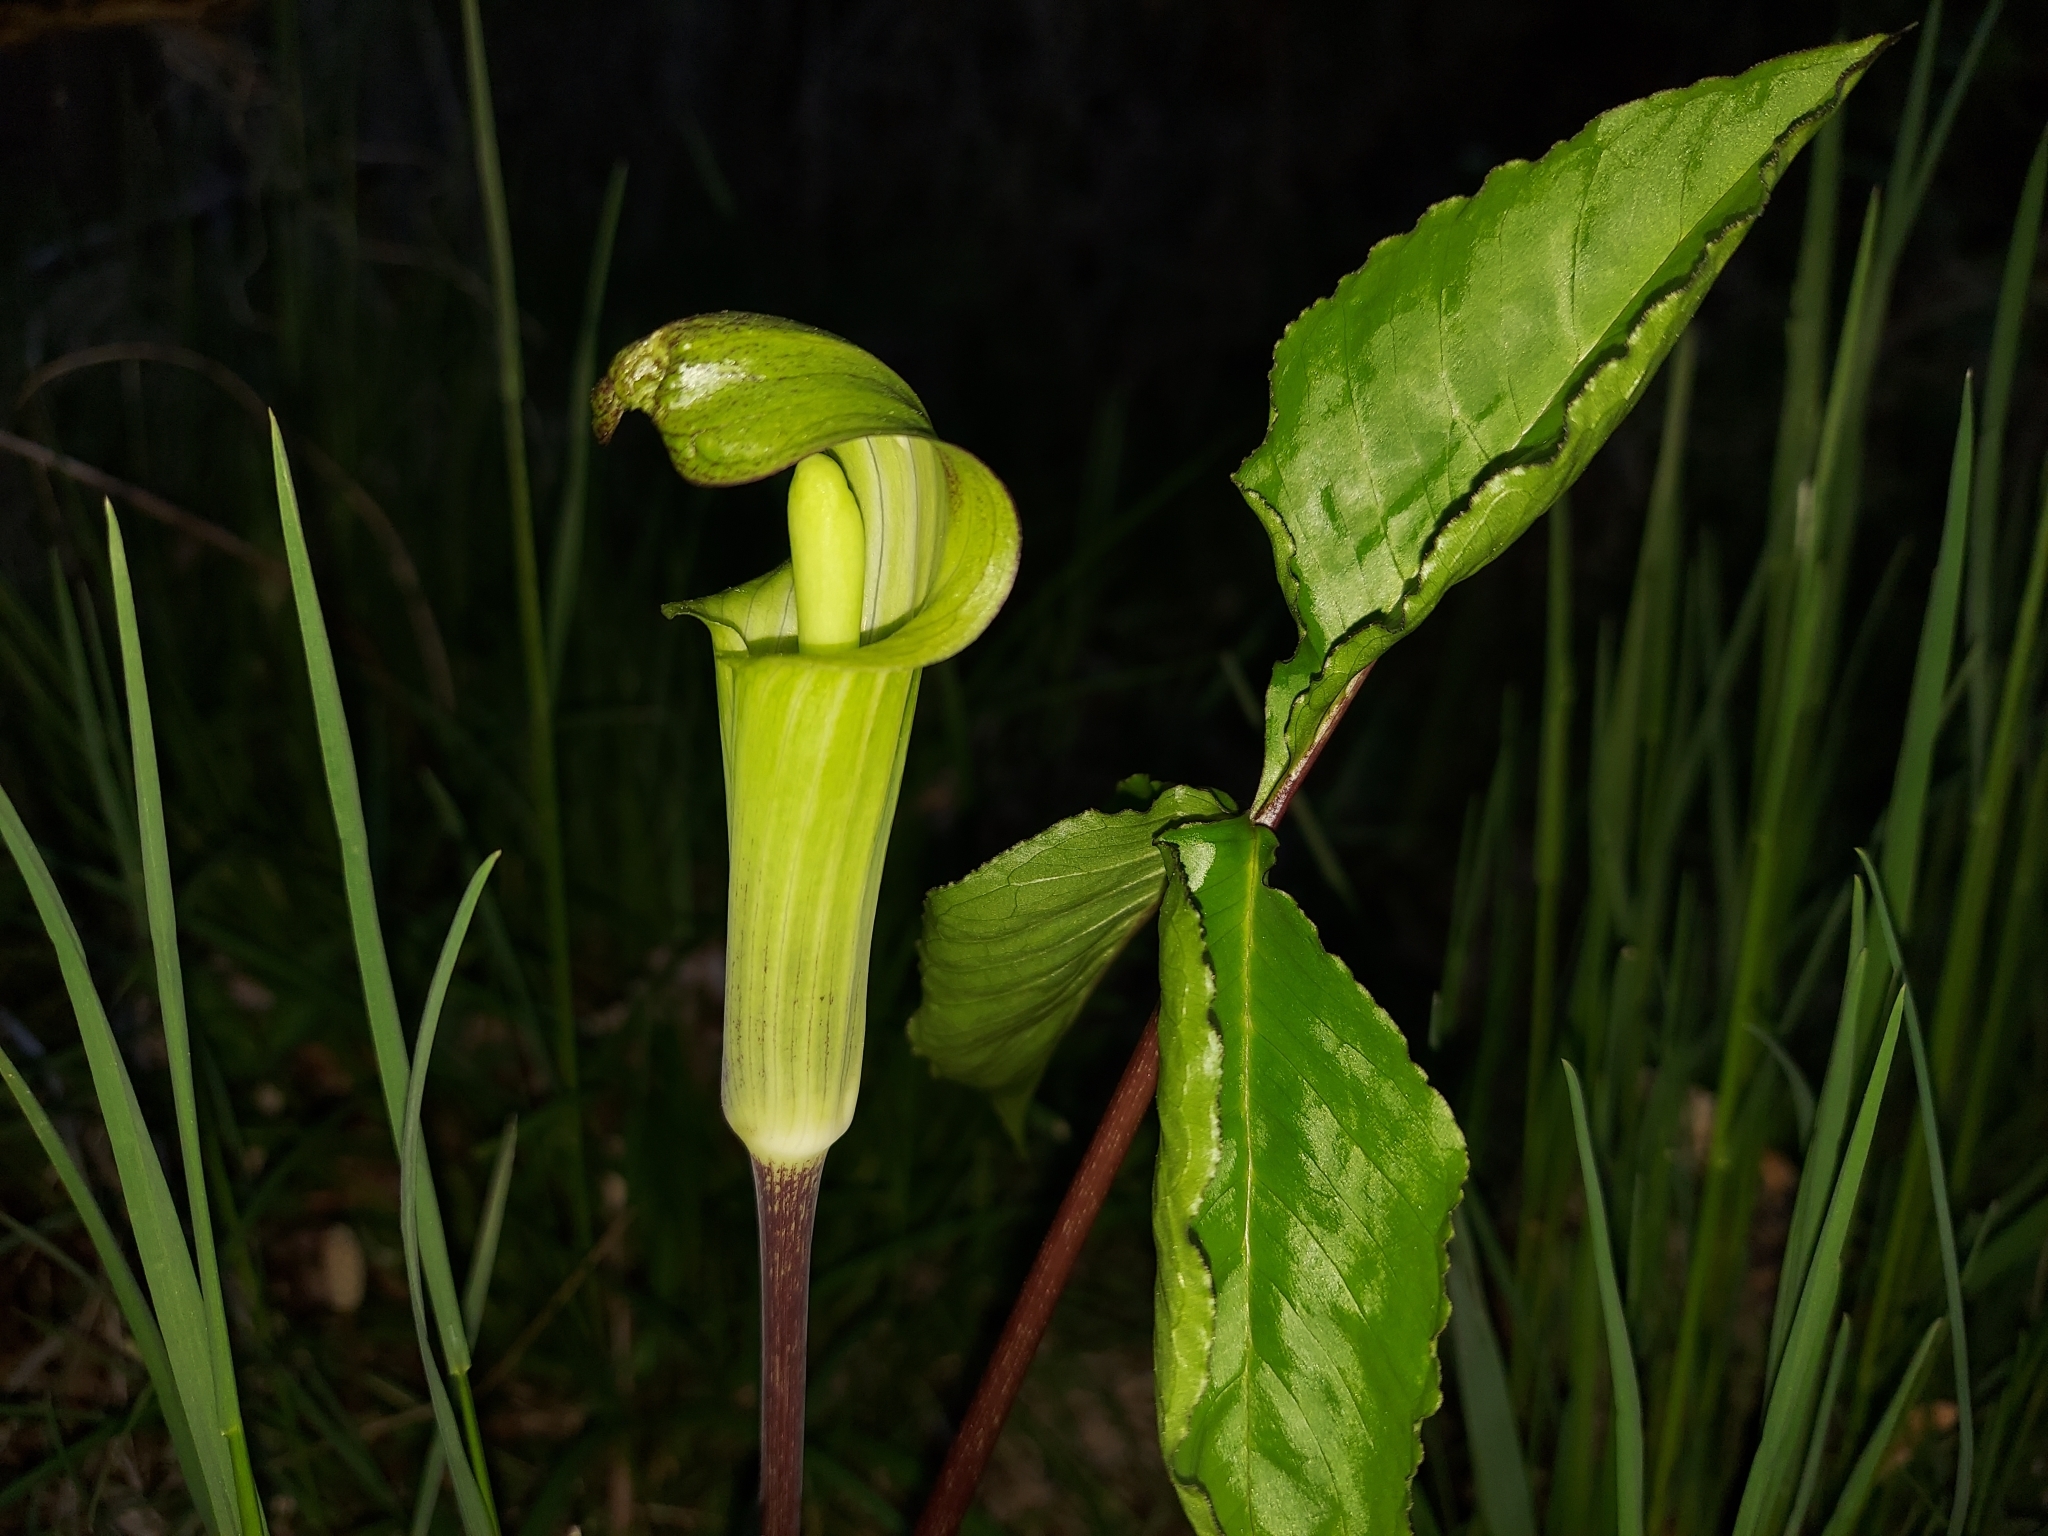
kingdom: Plantae
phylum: Tracheophyta
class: Liliopsida
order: Alismatales
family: Araceae
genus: Arisaema
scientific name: Arisaema triphyllum
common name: Jack-in-the-pulpit
